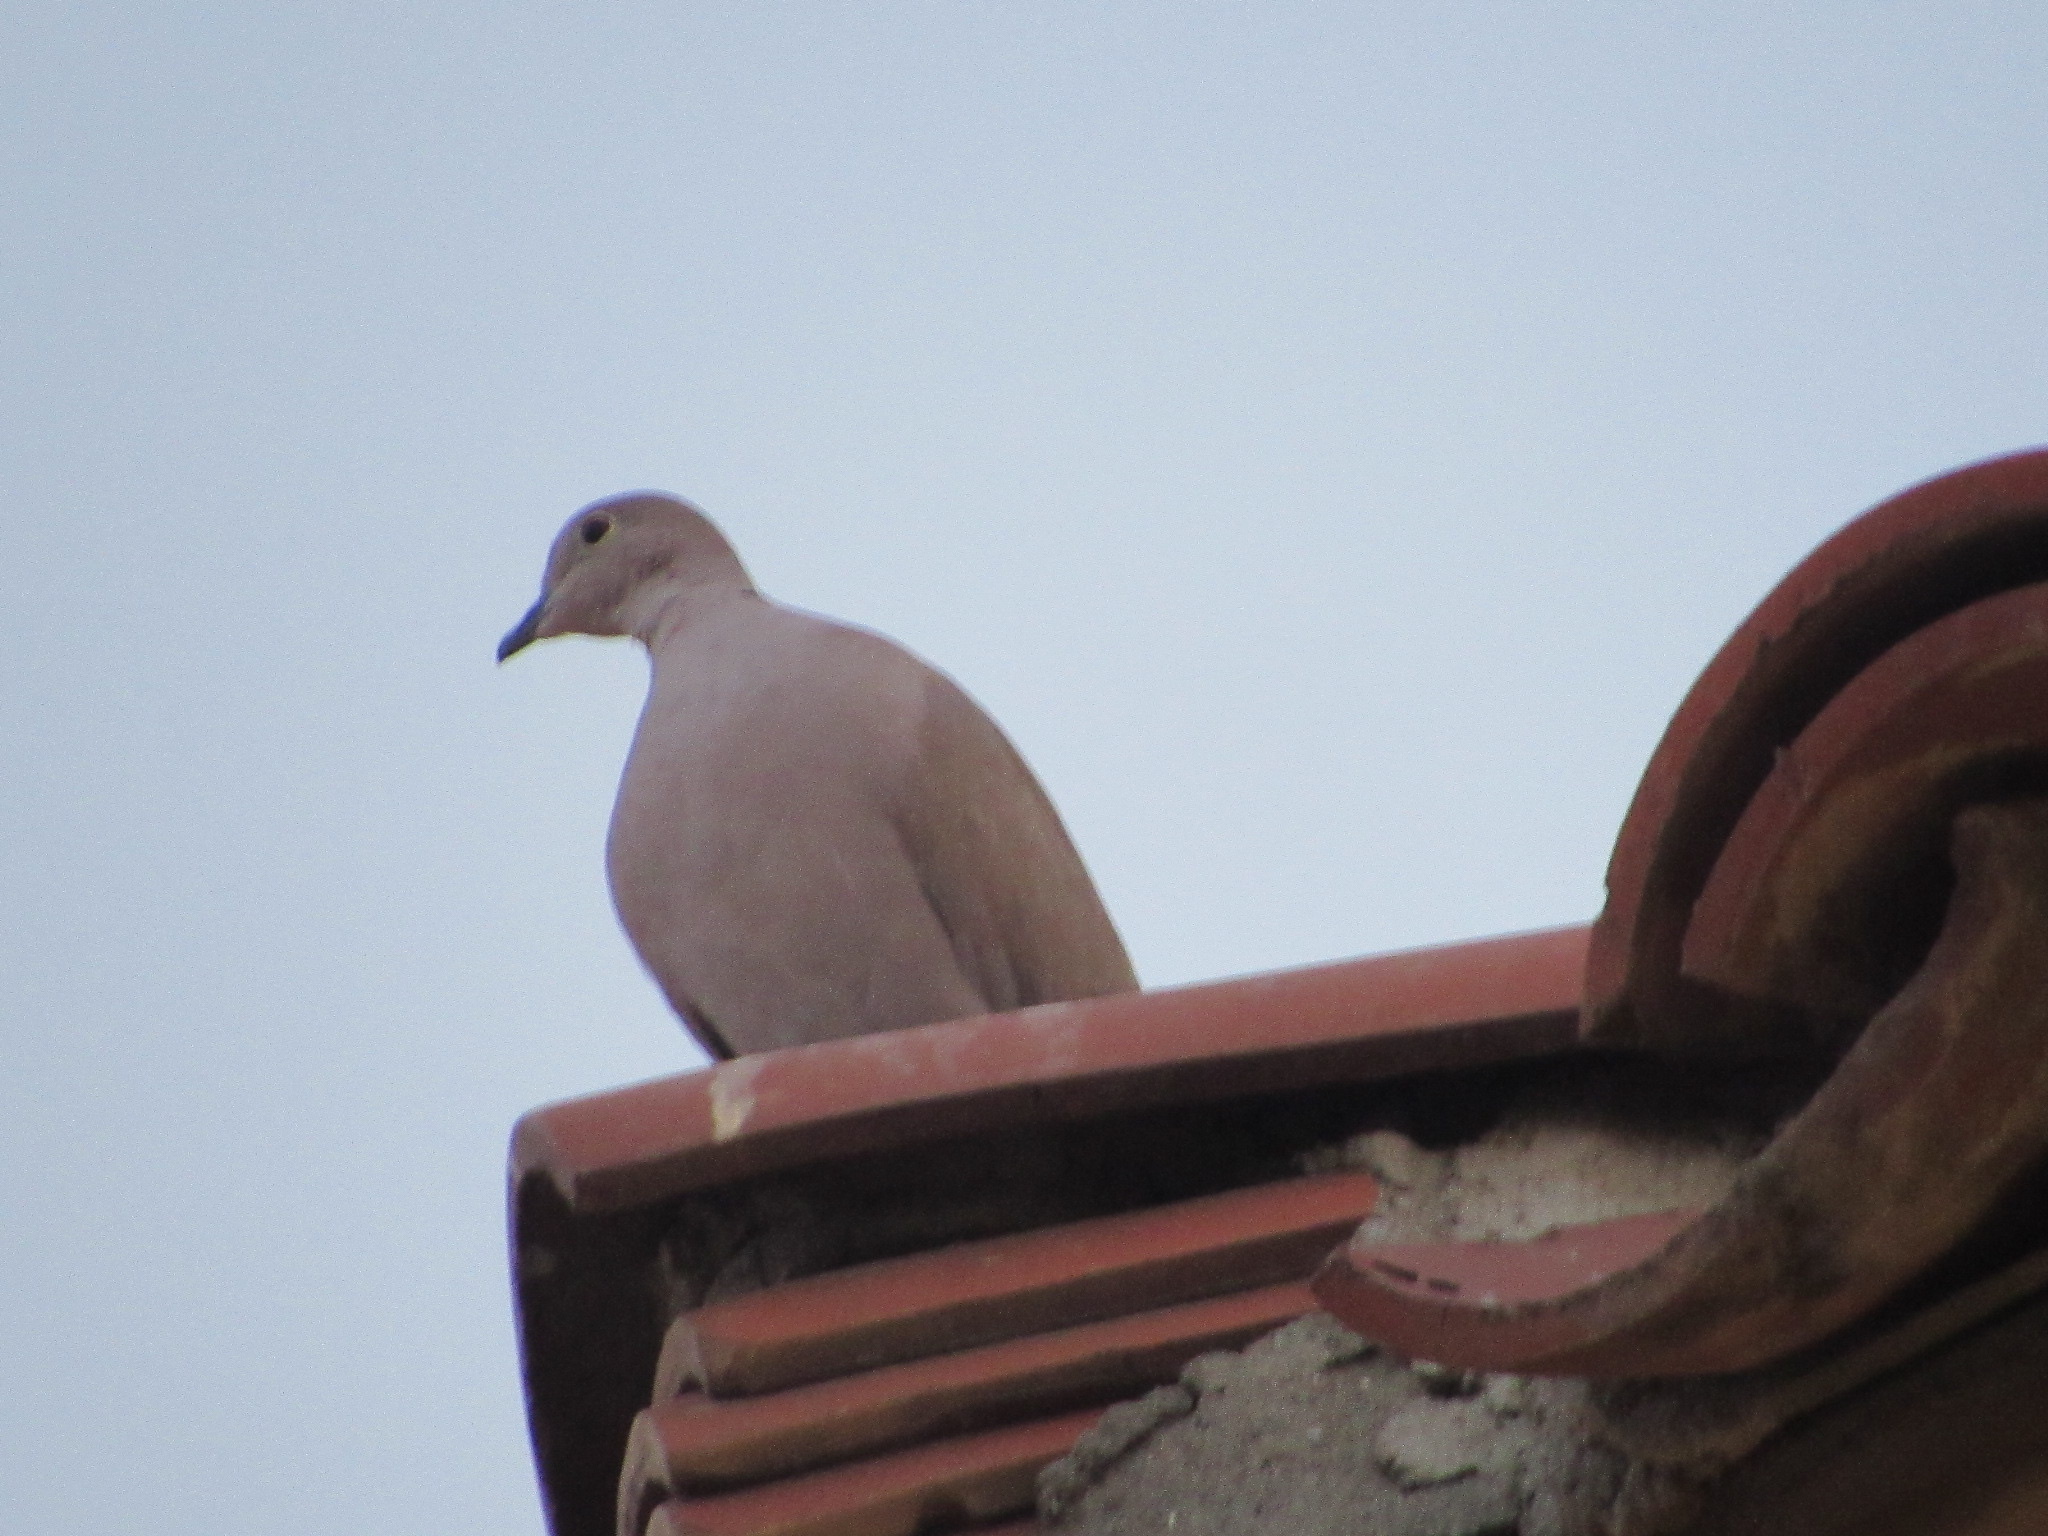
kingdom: Animalia
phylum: Chordata
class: Aves
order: Columbiformes
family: Columbidae
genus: Streptopelia
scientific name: Streptopelia decaocto
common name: Eurasian collared dove
